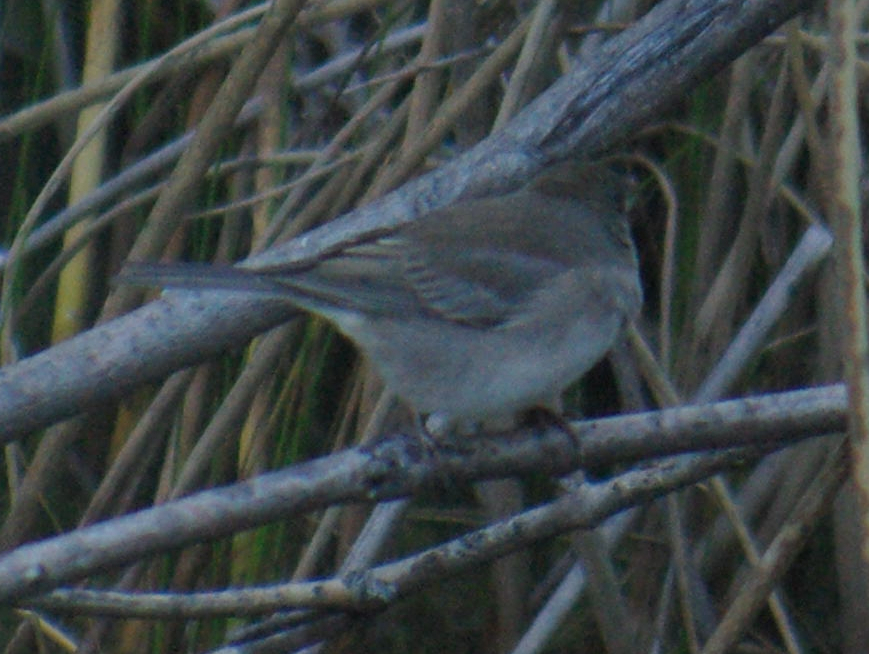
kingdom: Animalia
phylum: Chordata
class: Aves
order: Passeriformes
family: Passerellidae
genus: Junco
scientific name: Junco hyemalis
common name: Dark-eyed junco
